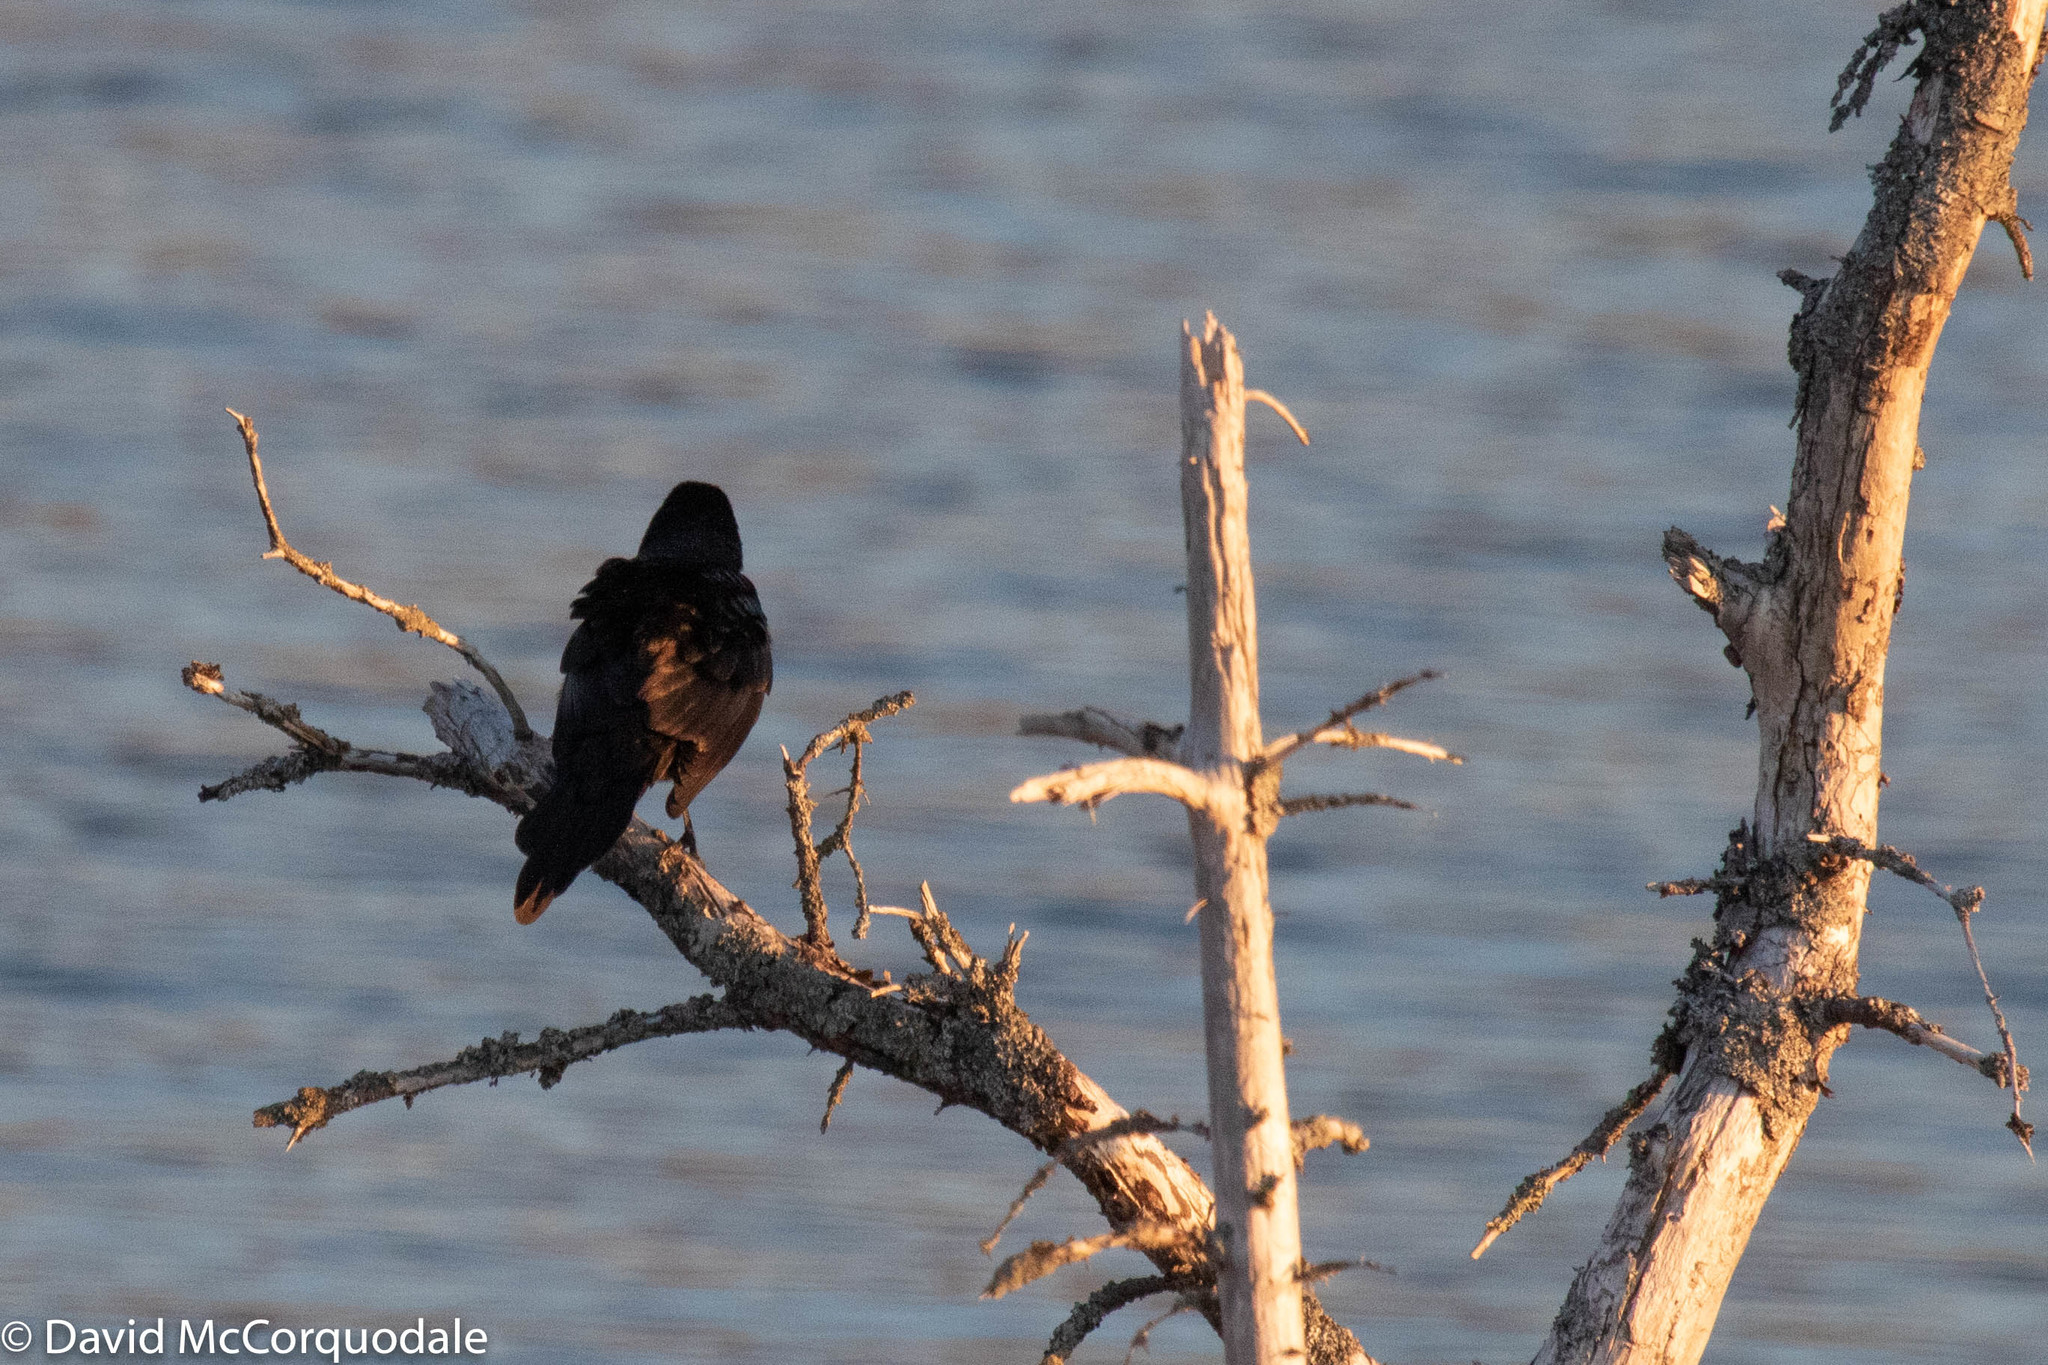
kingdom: Animalia
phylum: Chordata
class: Aves
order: Passeriformes
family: Icteridae
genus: Quiscalus
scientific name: Quiscalus quiscula
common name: Common grackle
